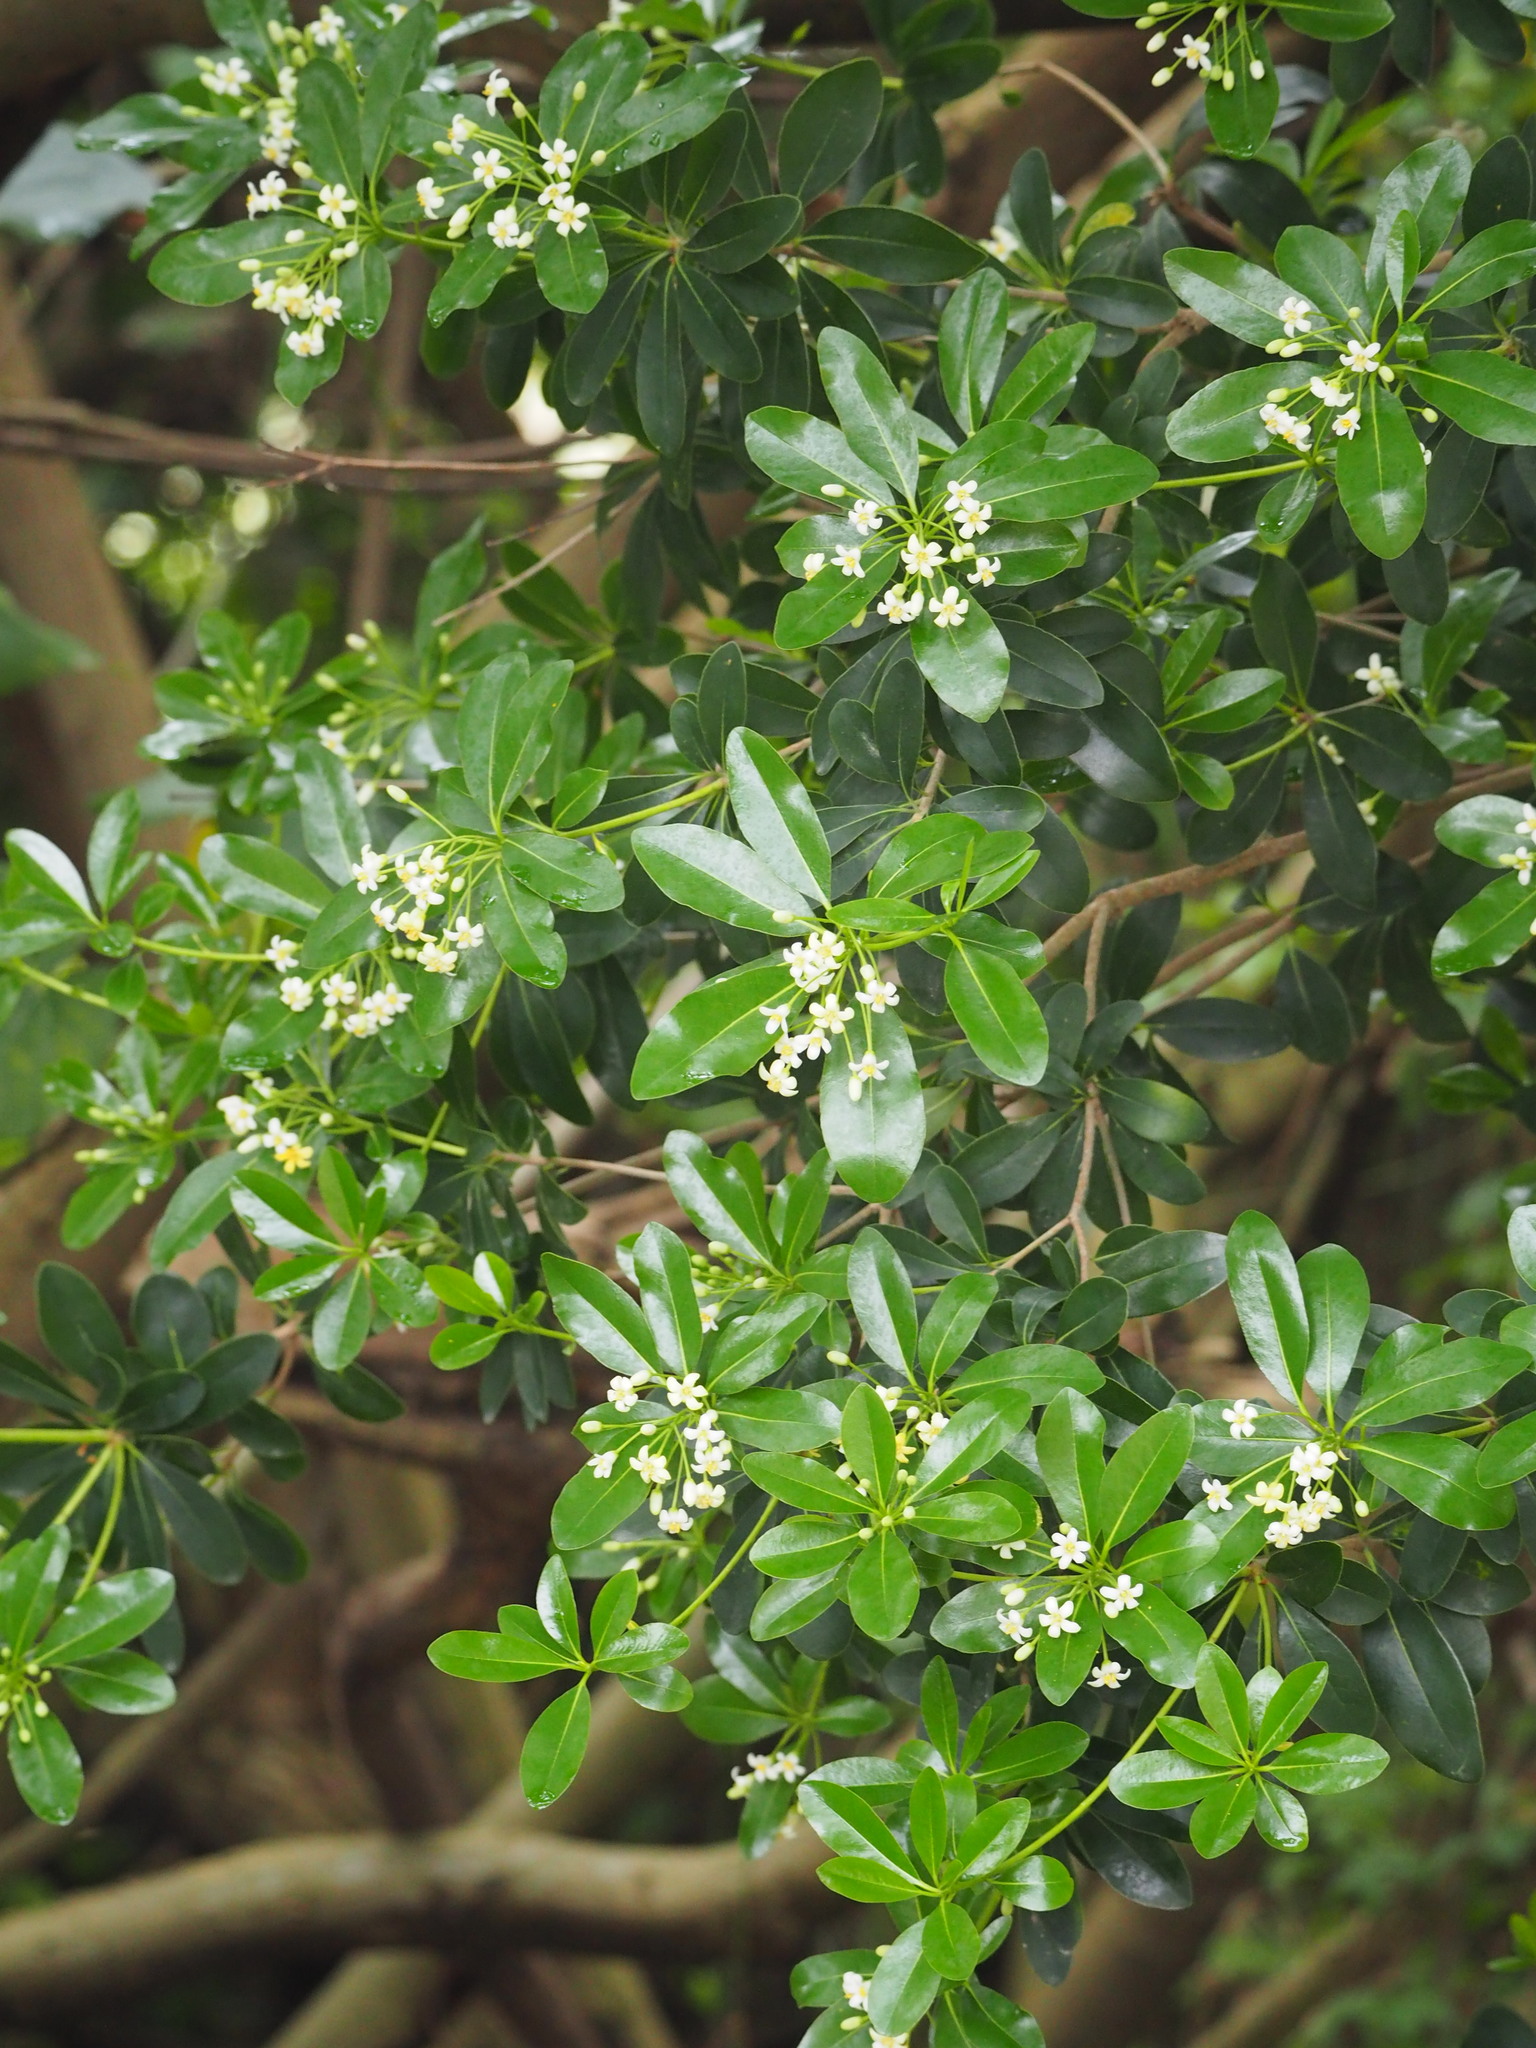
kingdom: Plantae
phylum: Tracheophyta
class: Magnoliopsida
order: Apiales
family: Pittosporaceae
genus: Pittosporum
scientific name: Pittosporum tobira
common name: Japanese cheesewood
